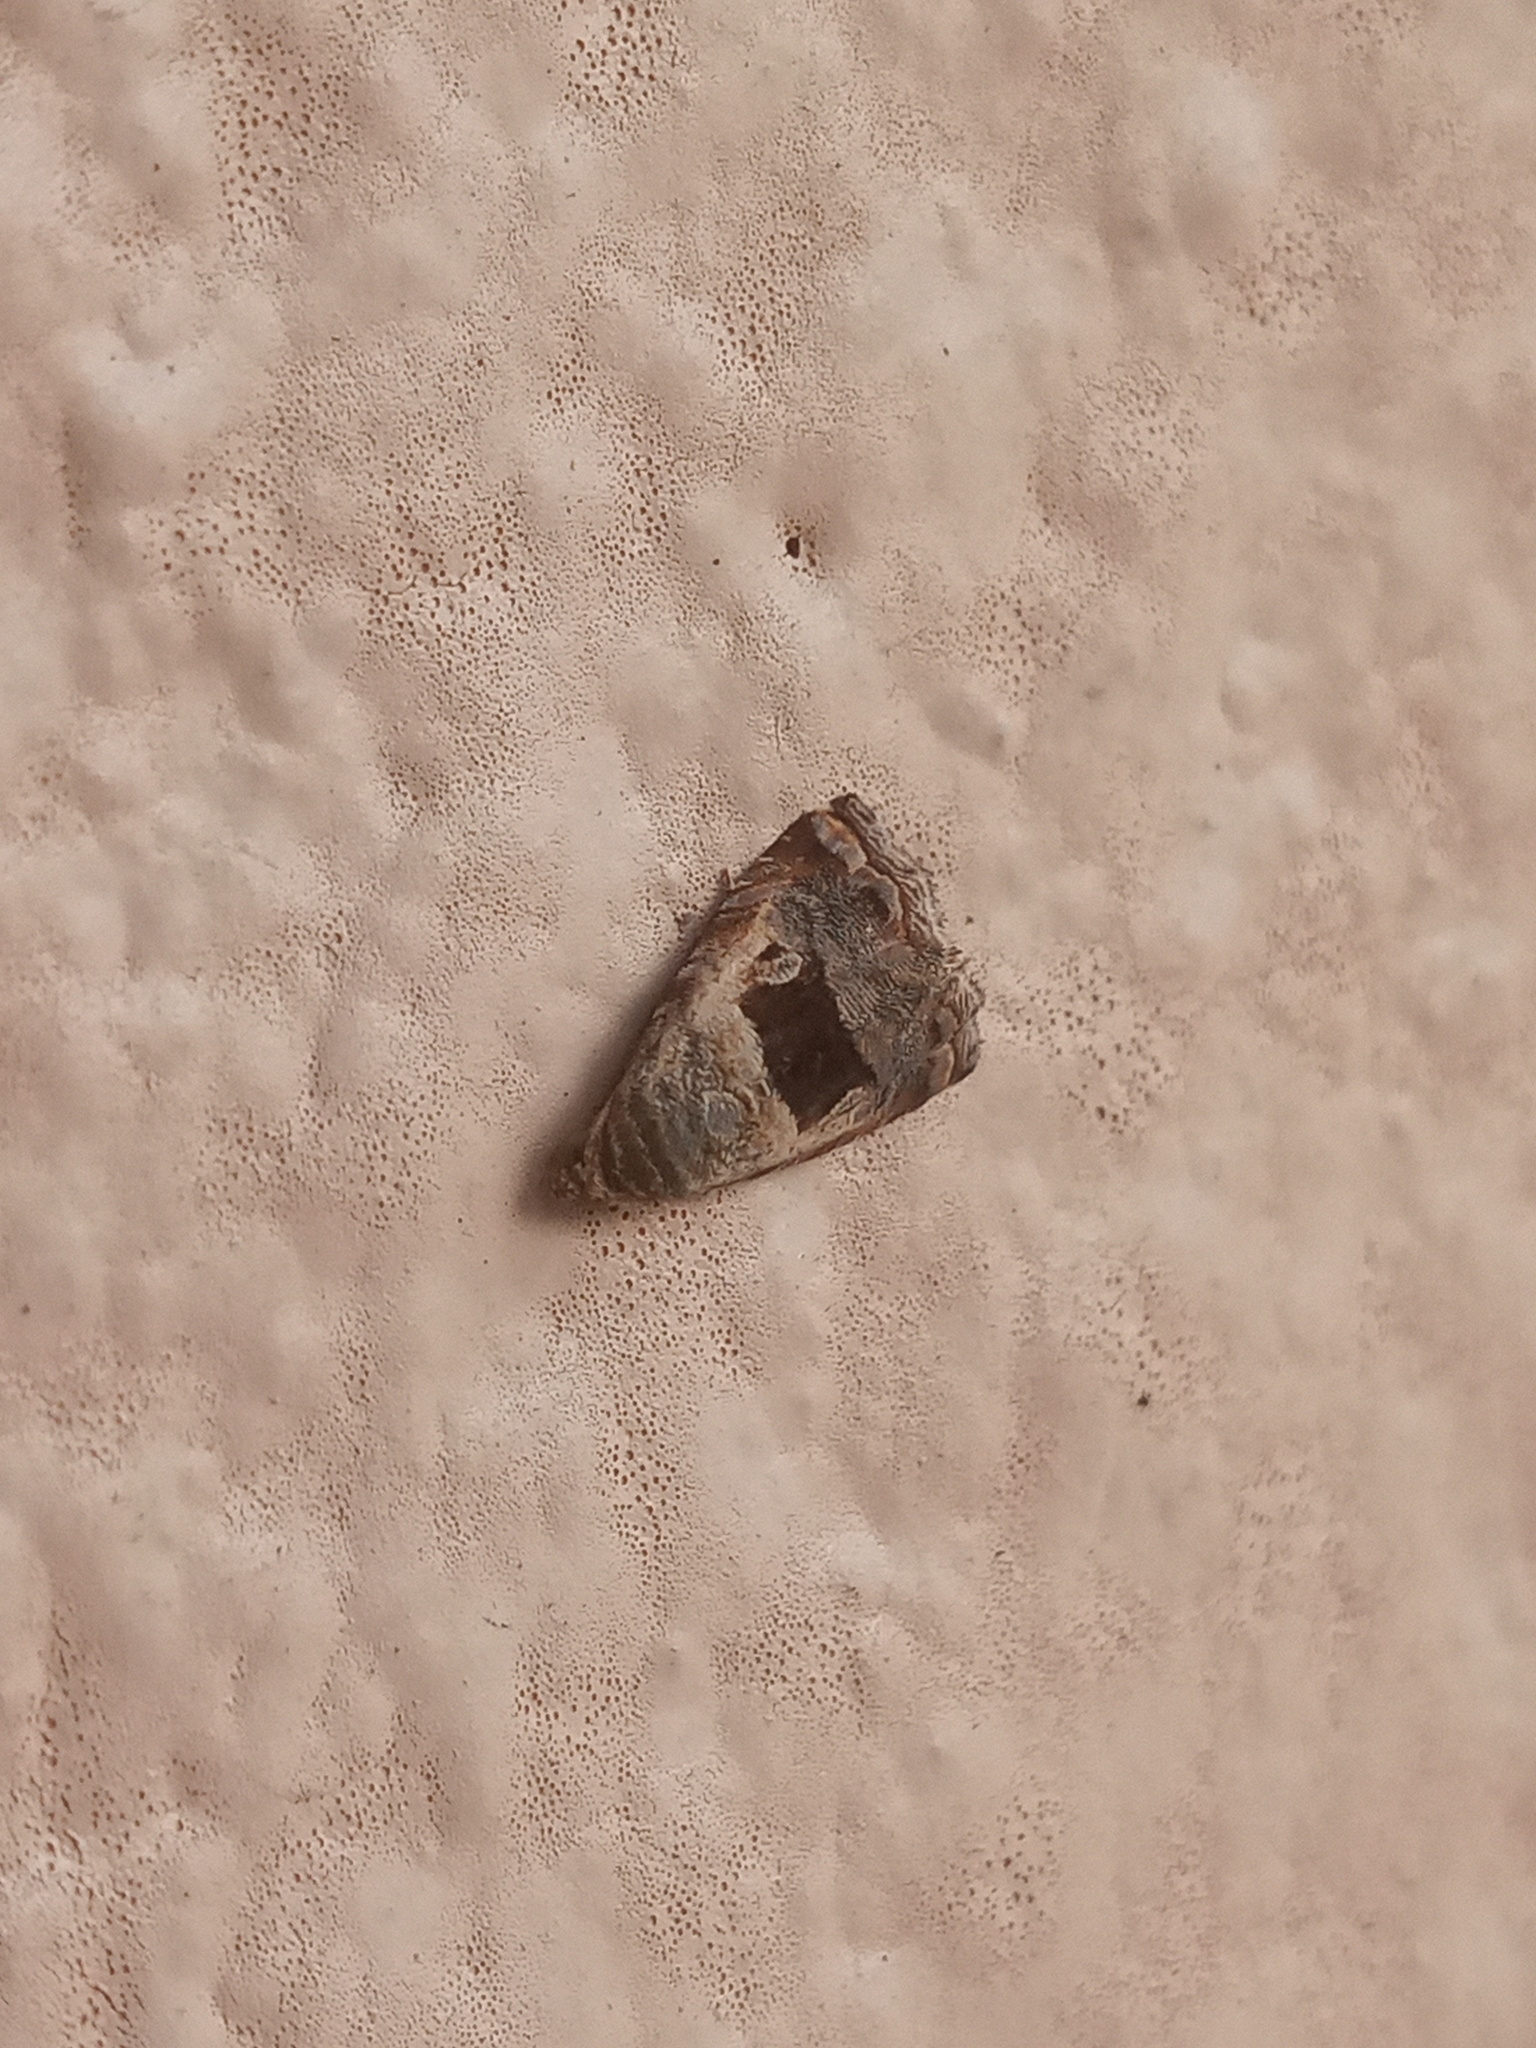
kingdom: Animalia
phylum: Arthropoda
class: Insecta
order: Lepidoptera
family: Noctuidae
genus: Tripudia
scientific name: Tripudia quadrifera
